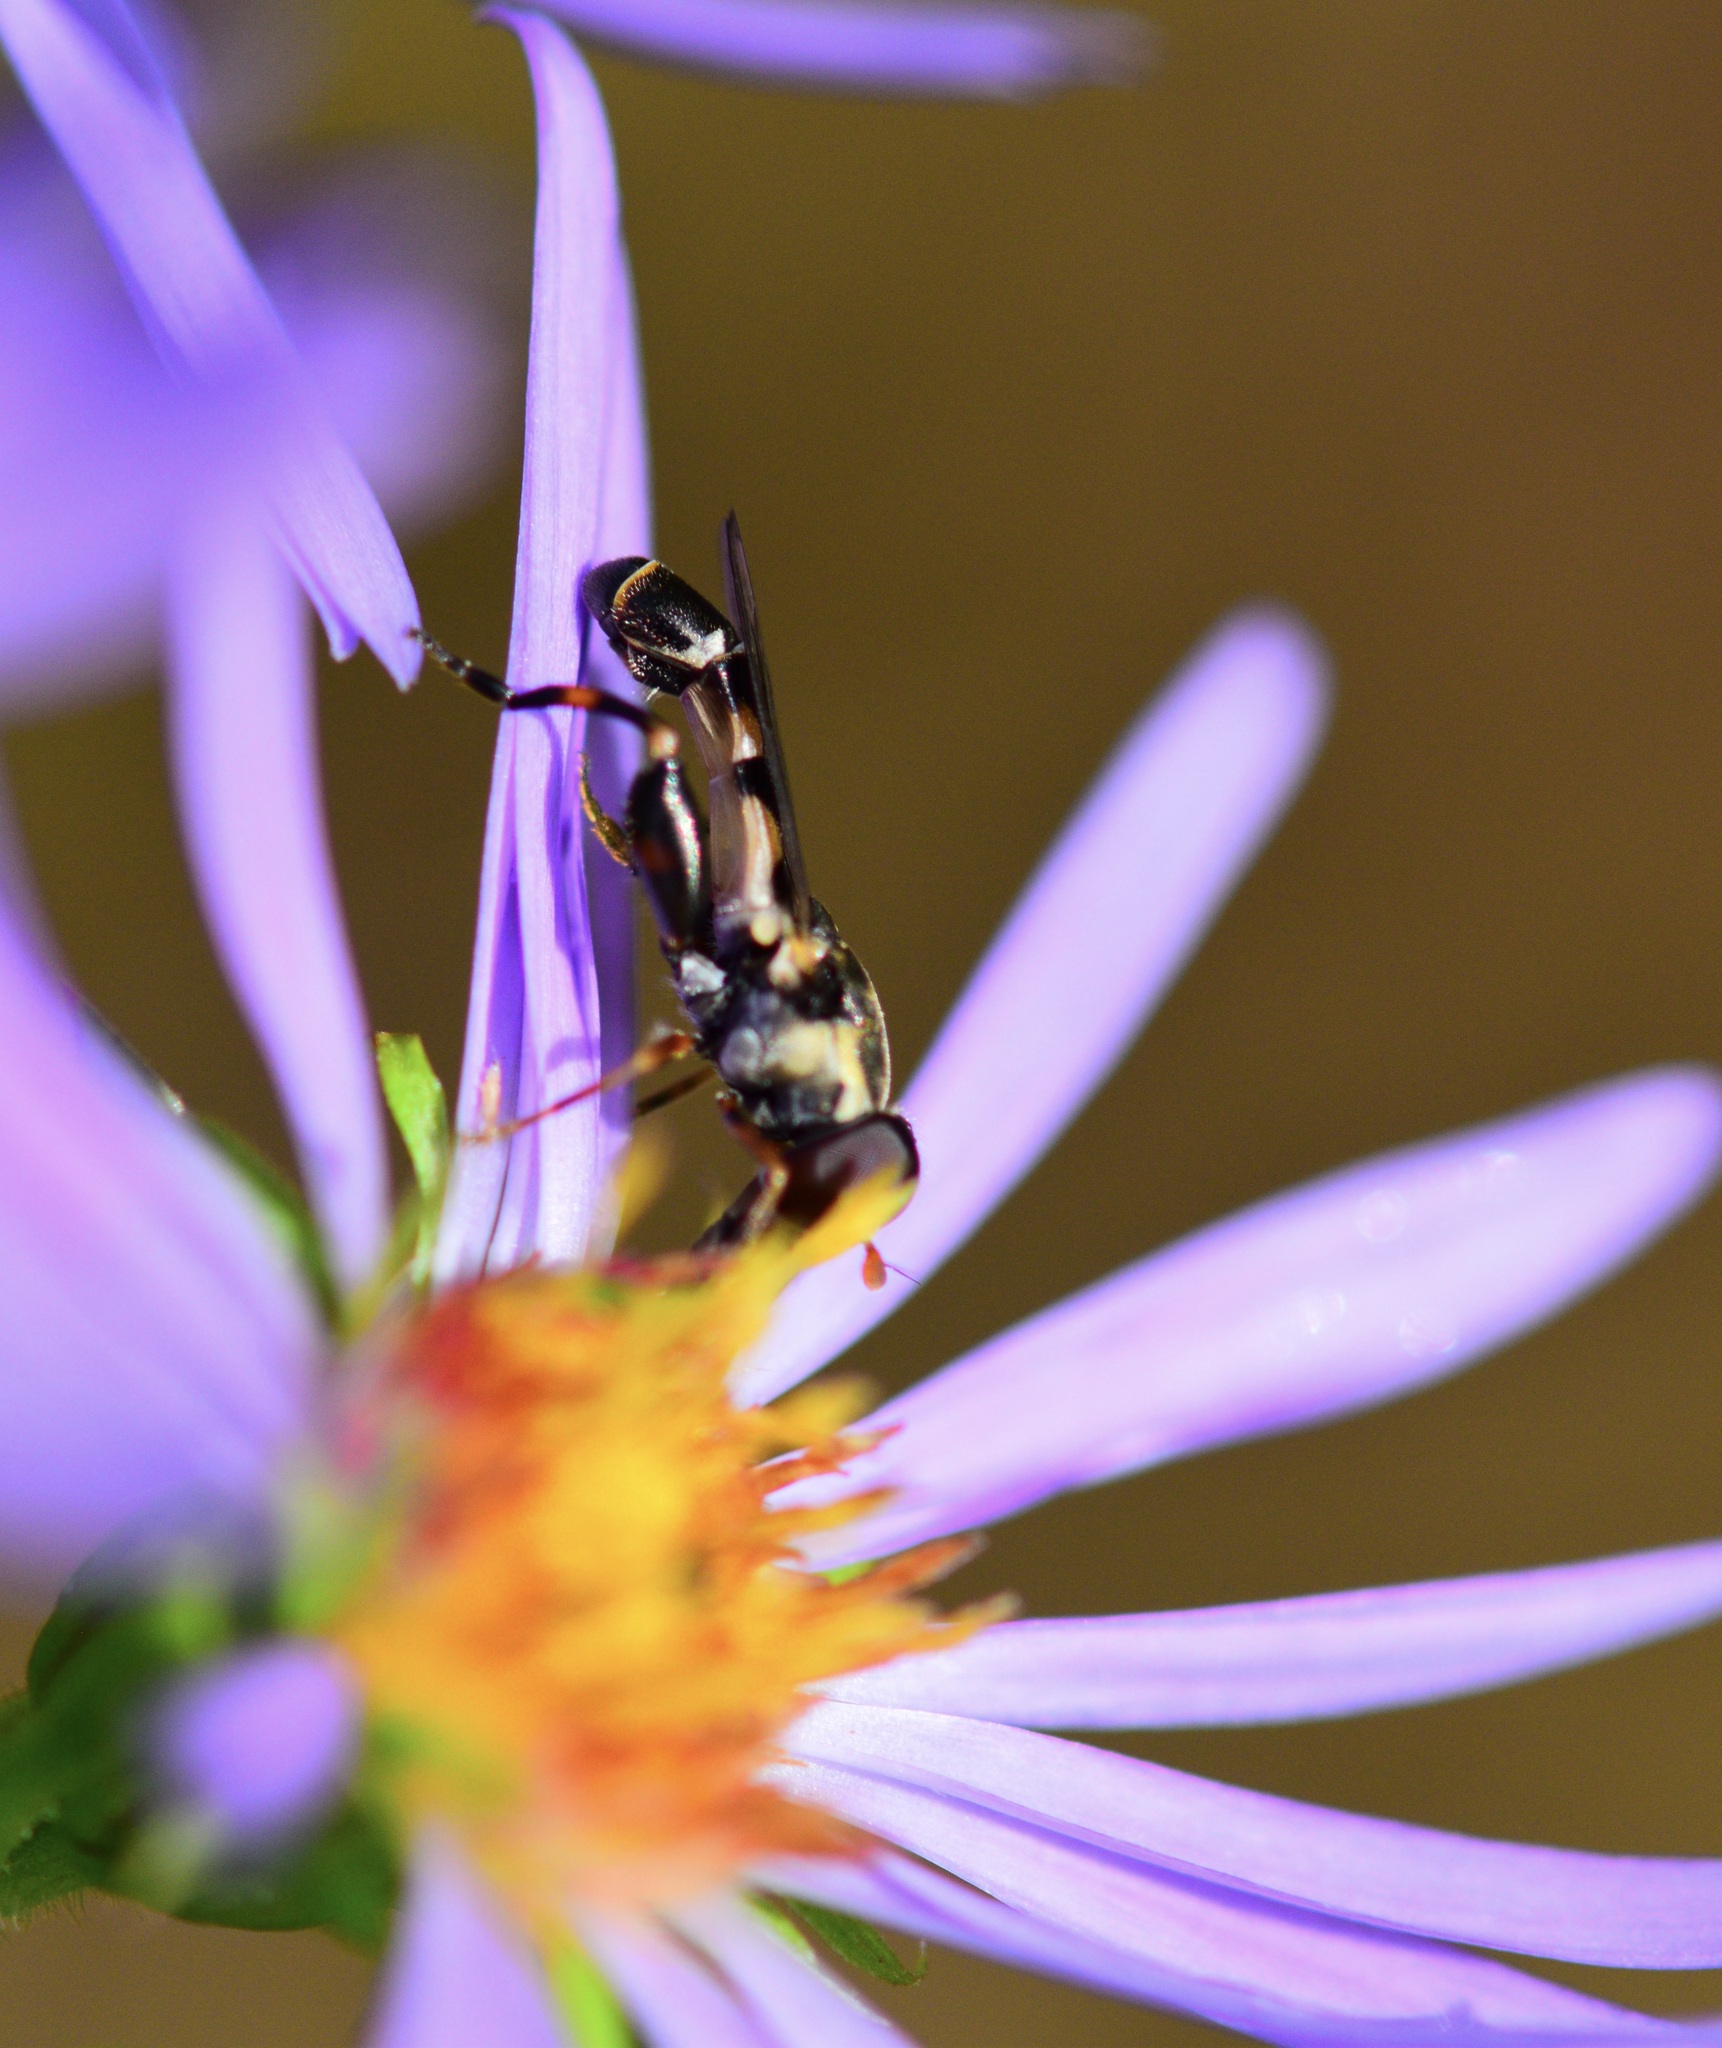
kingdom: Animalia
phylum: Arthropoda
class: Insecta
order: Diptera
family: Syrphidae
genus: Syritta
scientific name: Syritta pipiens
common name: Hover fly
